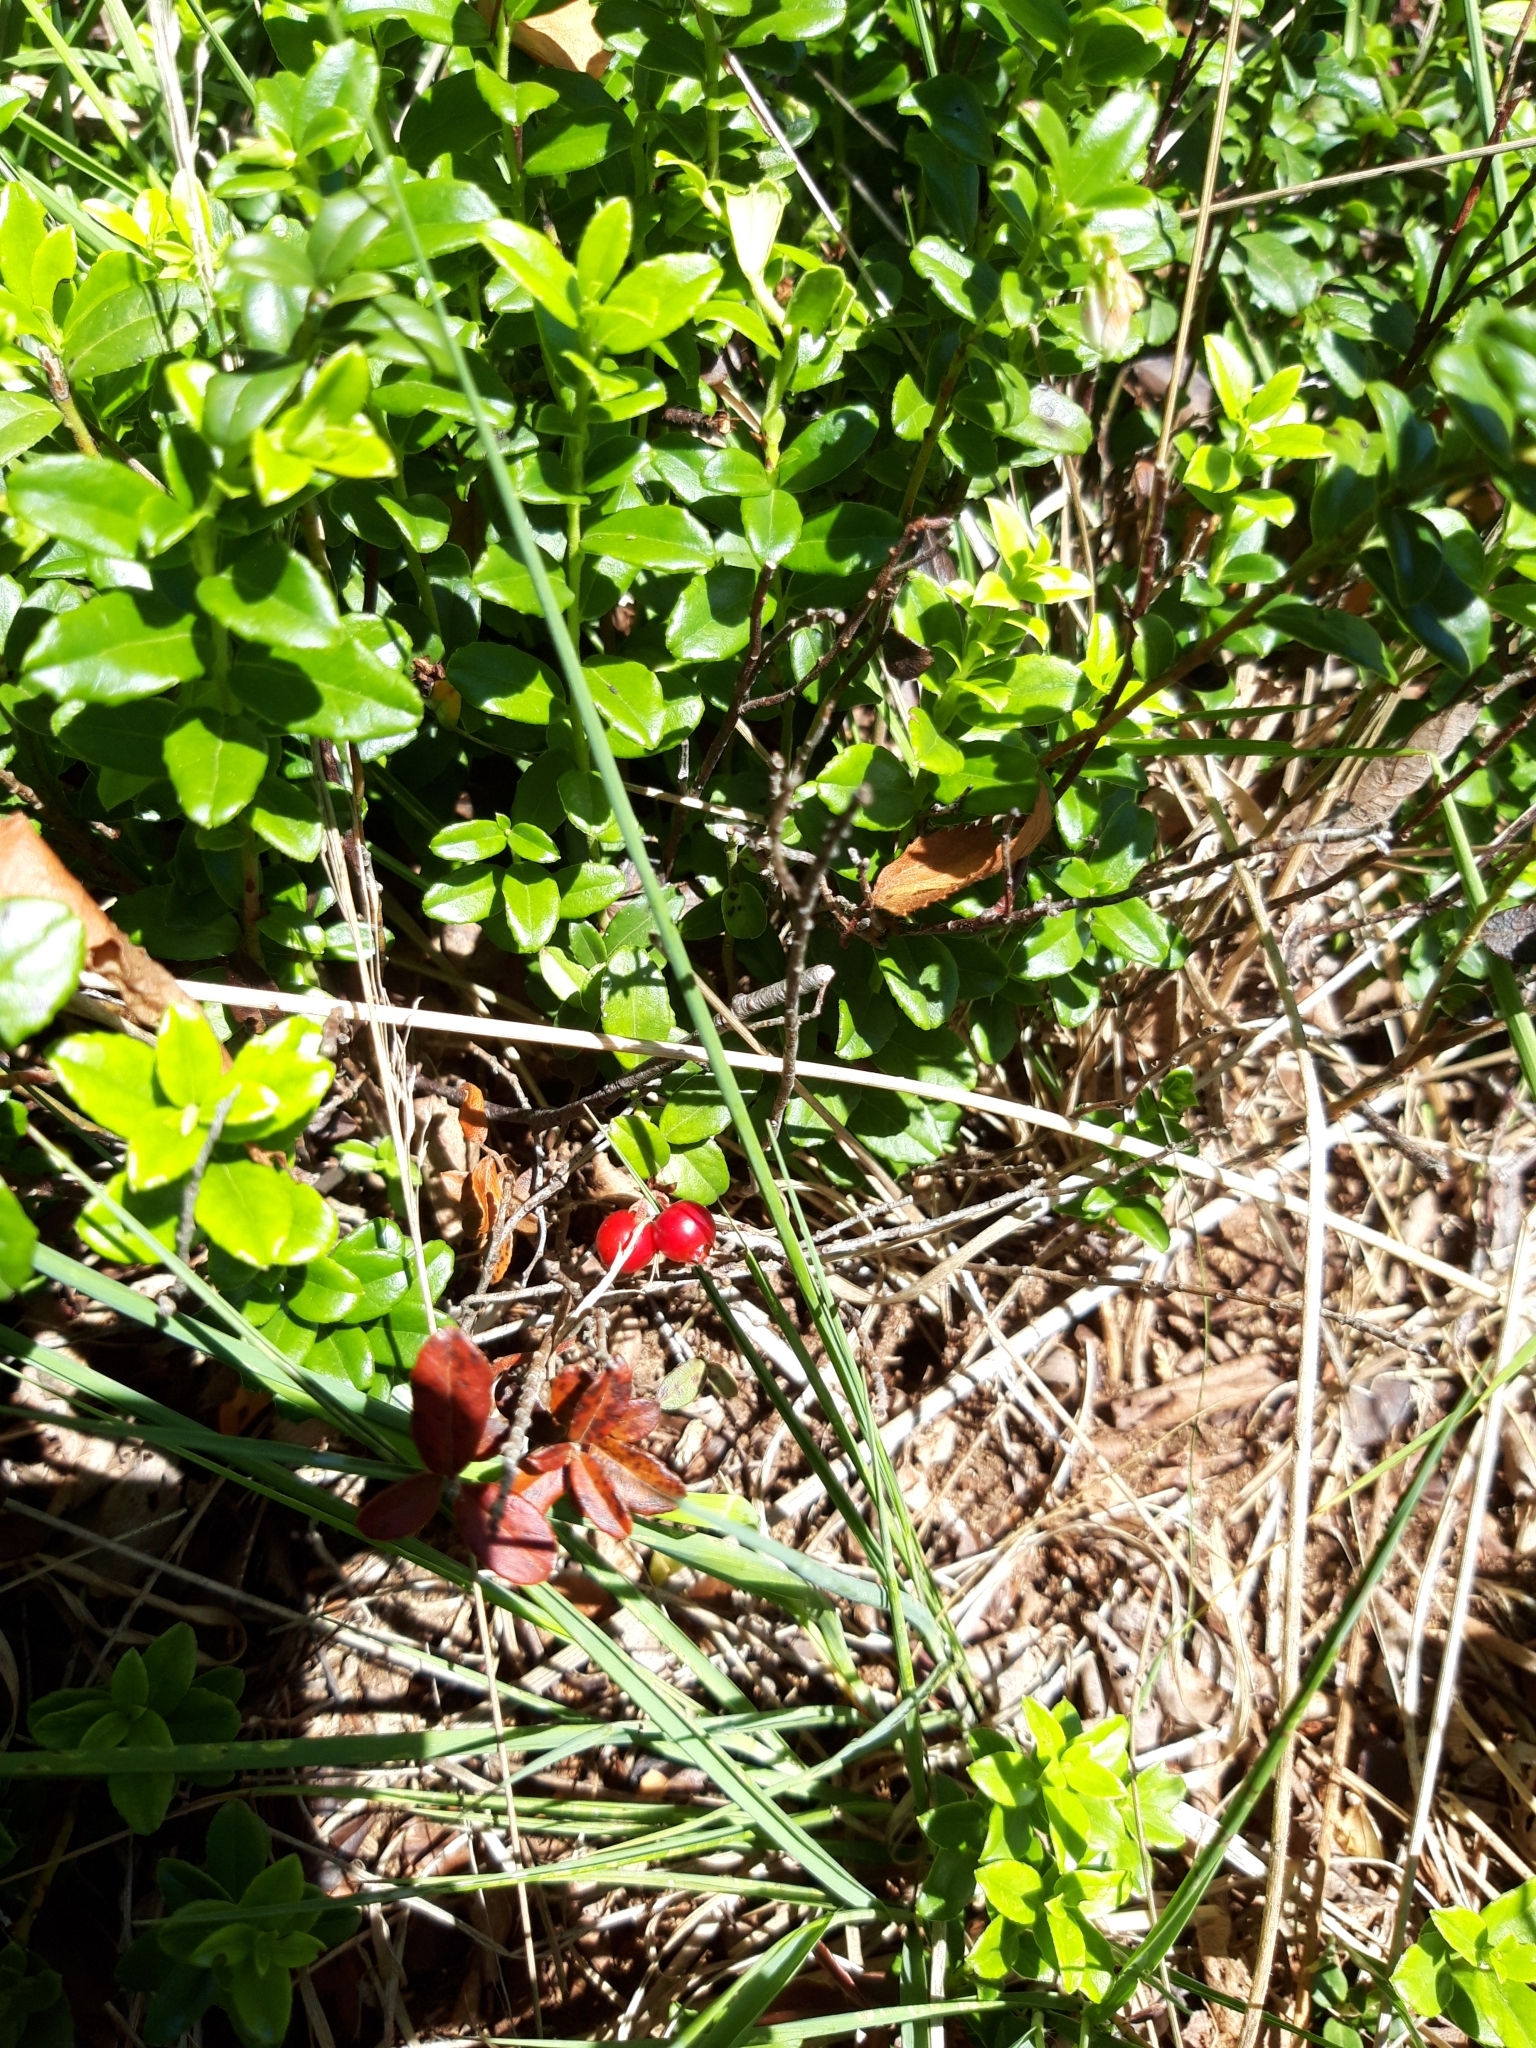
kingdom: Plantae
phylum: Tracheophyta
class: Magnoliopsida
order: Ericales
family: Ericaceae
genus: Vaccinium
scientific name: Vaccinium vitis-idaea
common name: Cowberry
